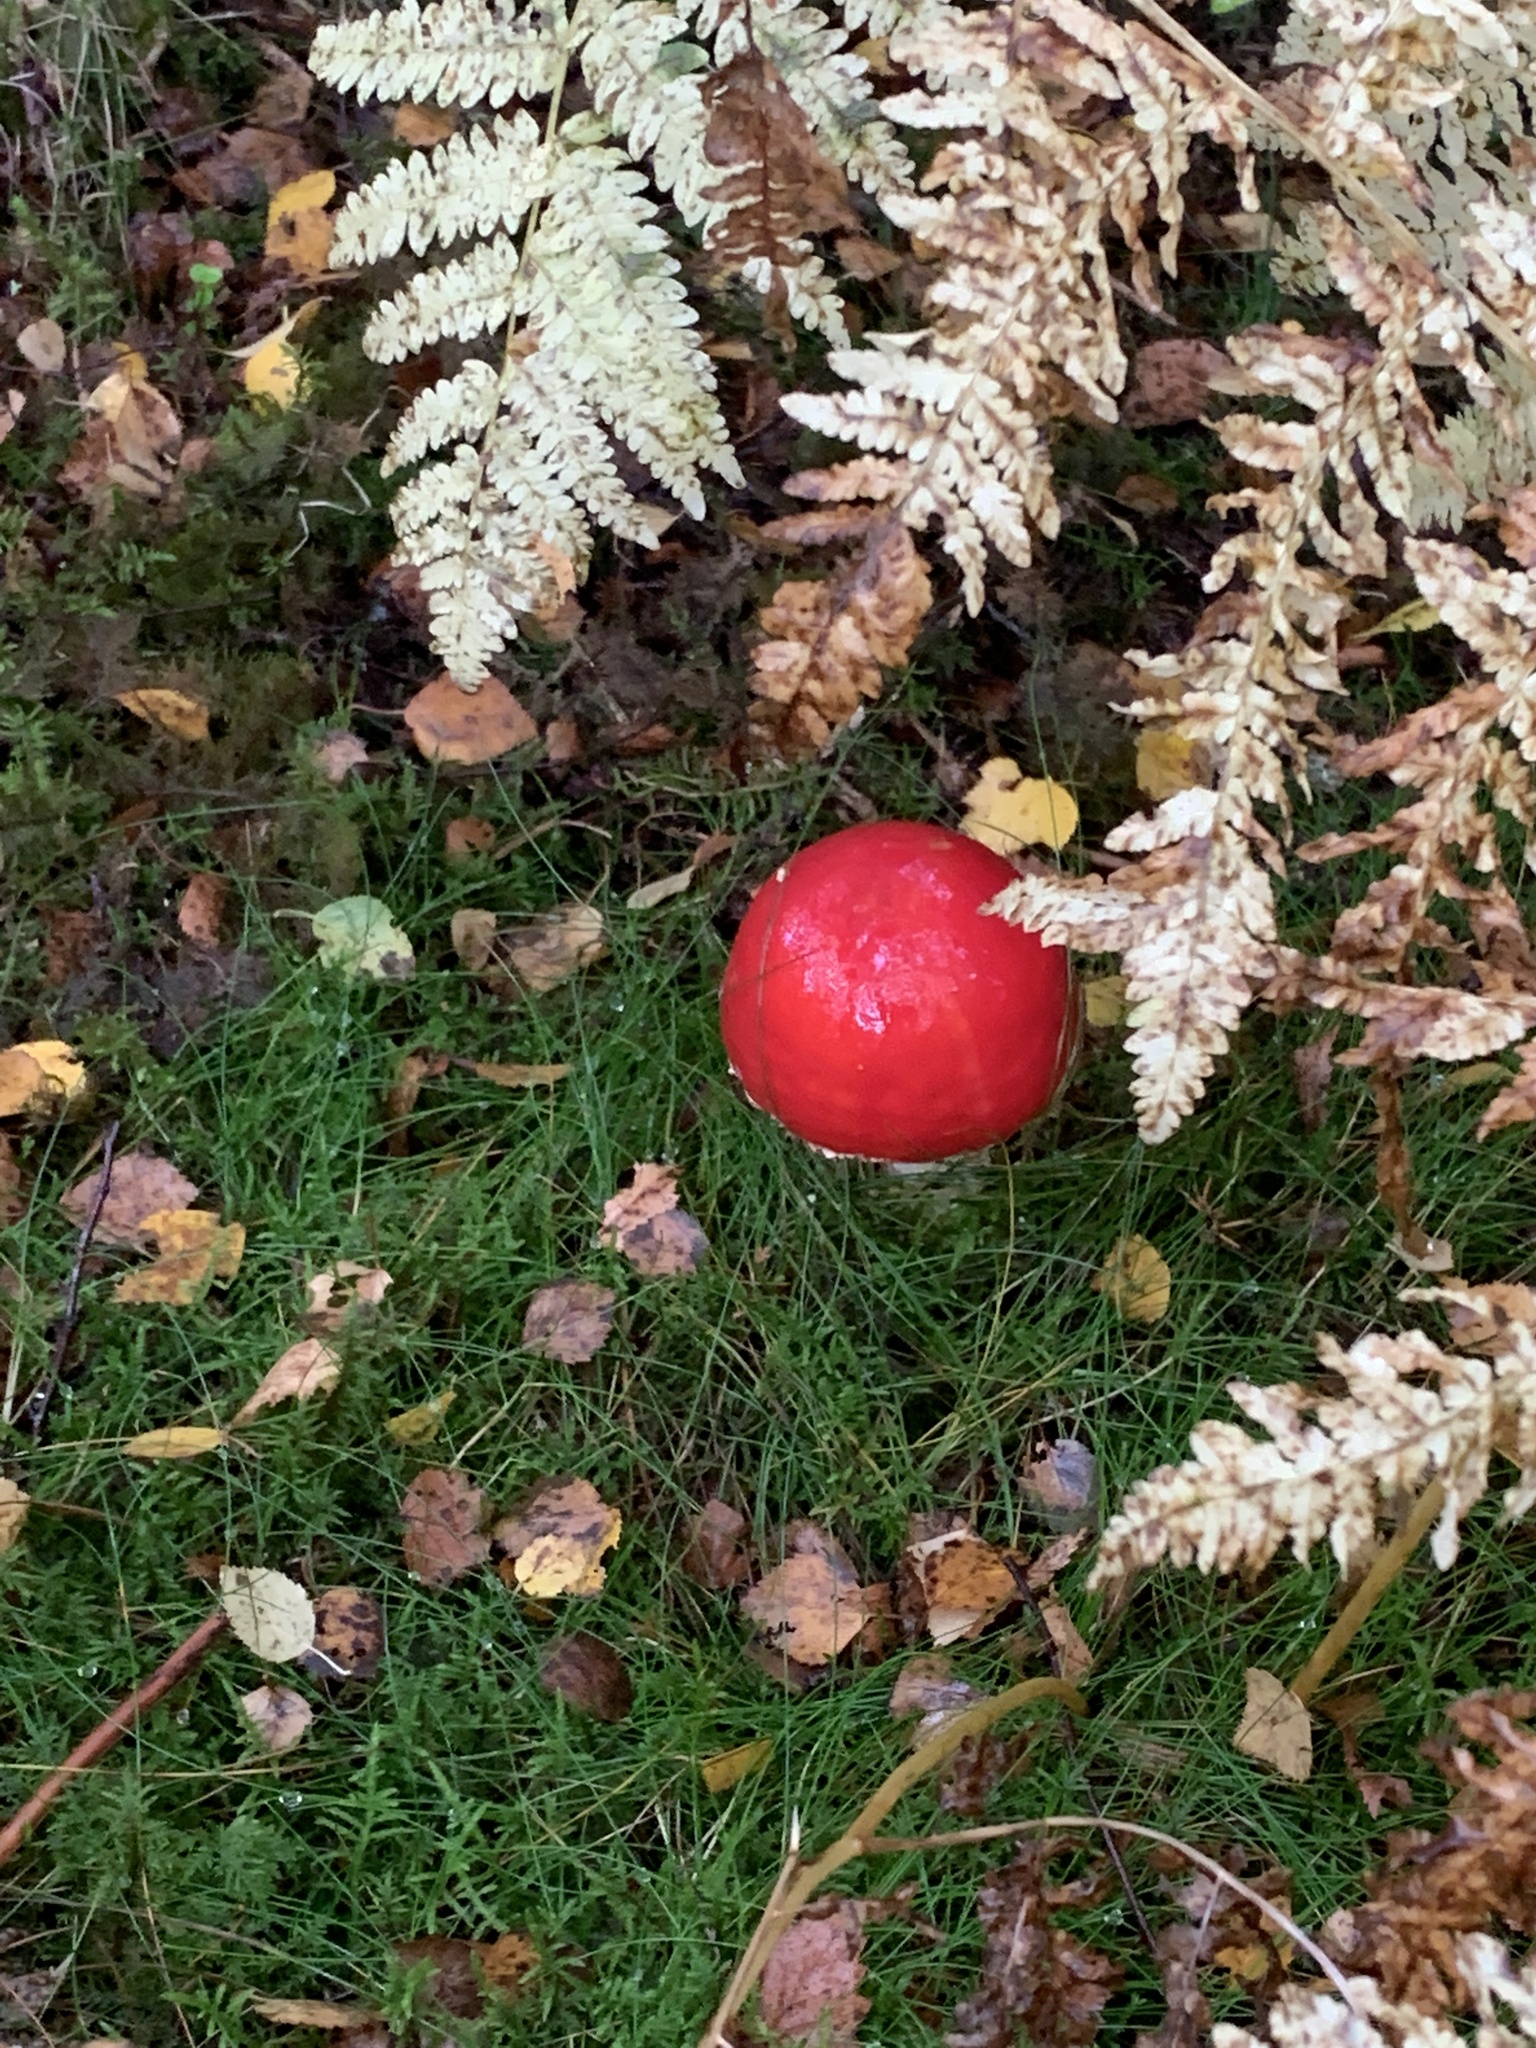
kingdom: Fungi
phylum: Basidiomycota
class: Agaricomycetes
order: Agaricales
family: Amanitaceae
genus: Amanita
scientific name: Amanita muscaria
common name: Fly agaric
